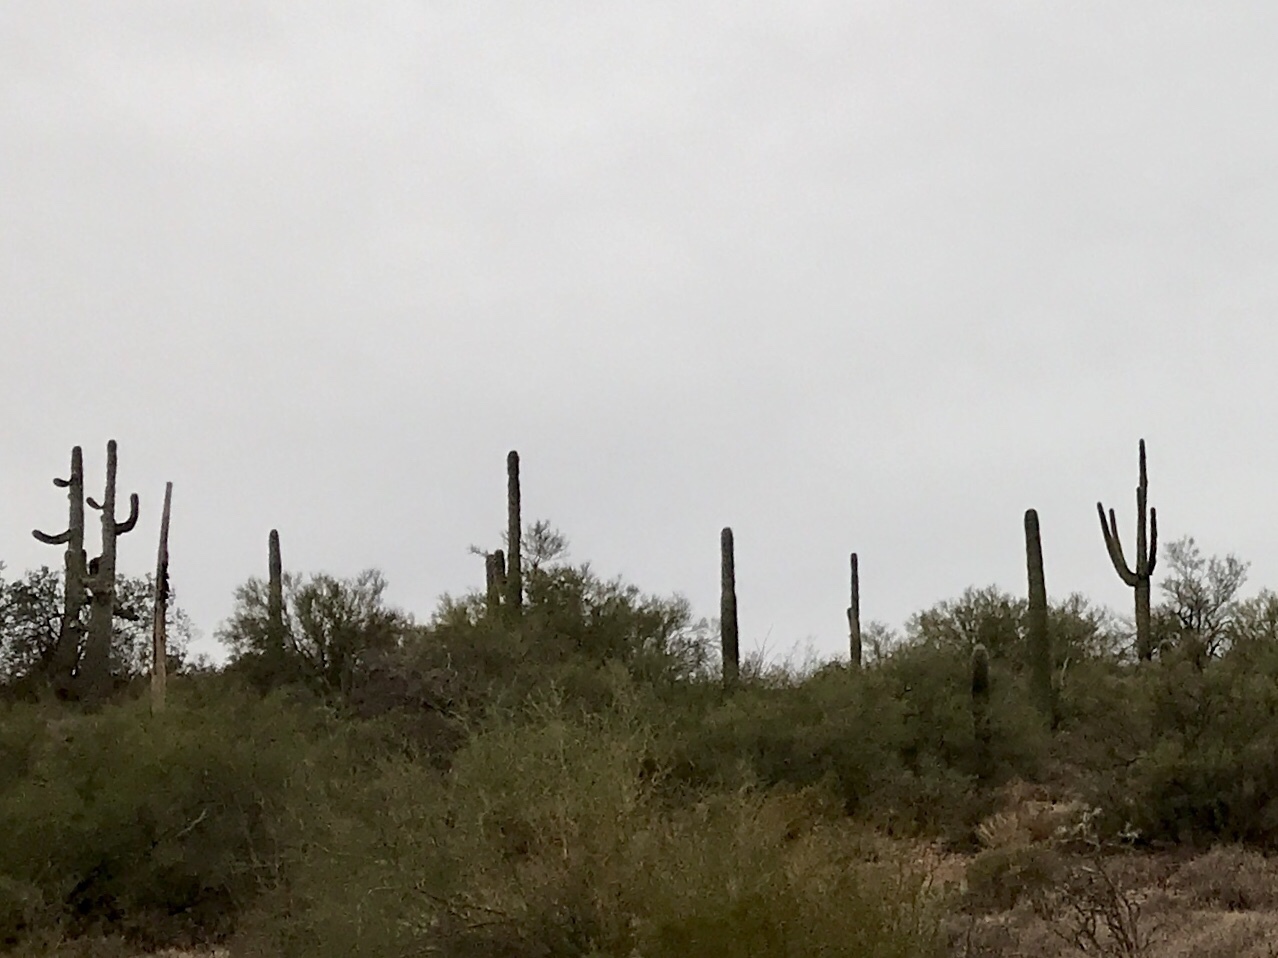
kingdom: Plantae
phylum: Tracheophyta
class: Magnoliopsida
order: Caryophyllales
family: Cactaceae
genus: Carnegiea
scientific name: Carnegiea gigantea
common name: Saguaro
